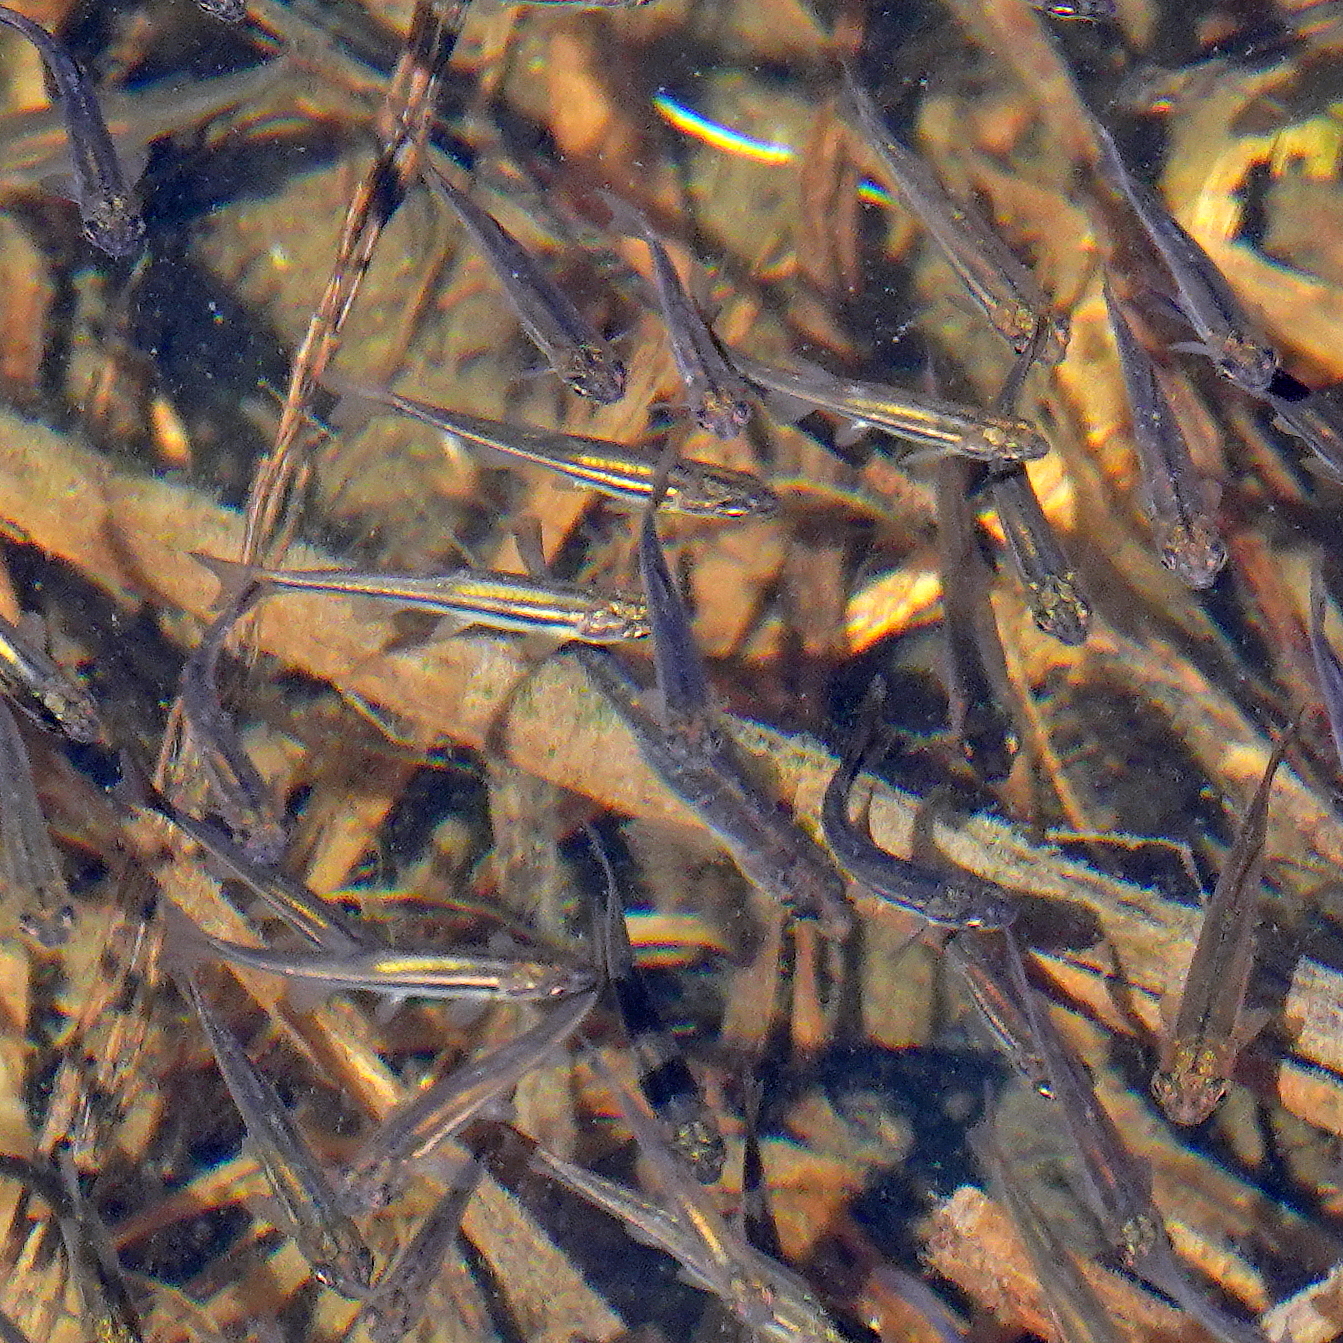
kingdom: Animalia
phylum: Chordata
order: Cypriniformes
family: Cyprinidae
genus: Chrosomus
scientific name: Chrosomus eos
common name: Northern redbelly dace
